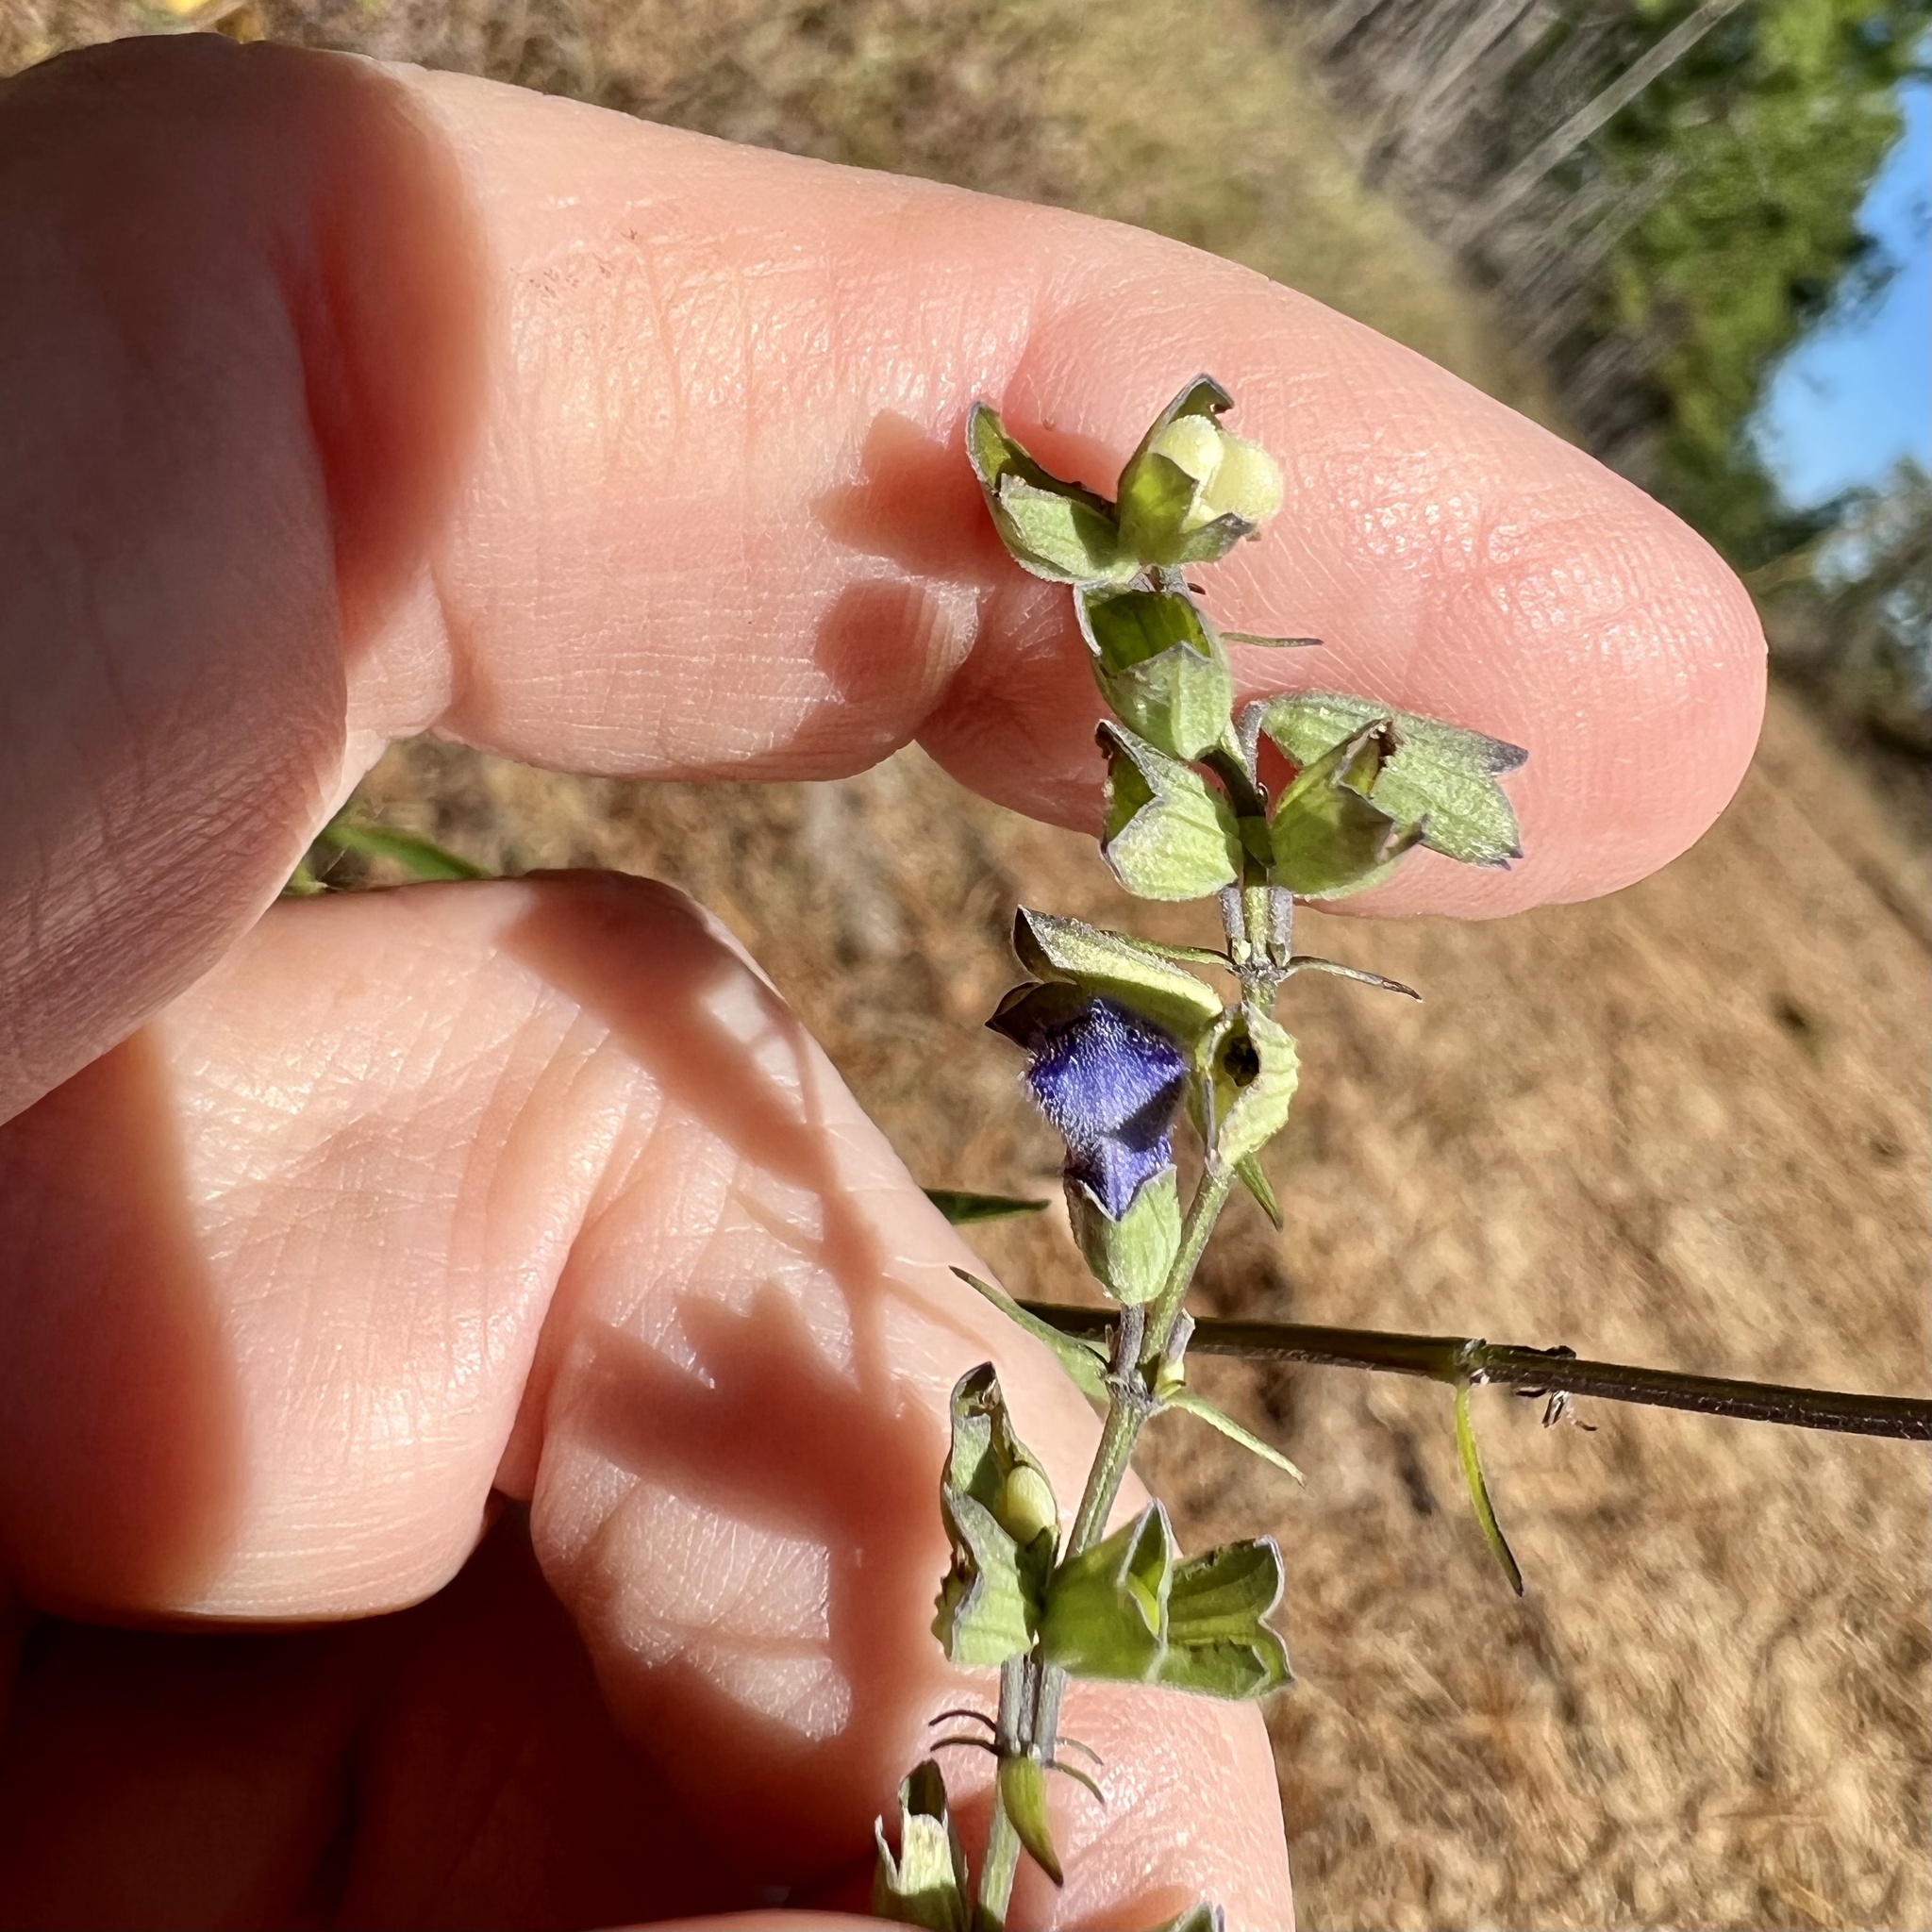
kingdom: Plantae
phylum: Tracheophyta
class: Magnoliopsida
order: Lamiales
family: Lamiaceae
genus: Salvia
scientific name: Salvia azurea
